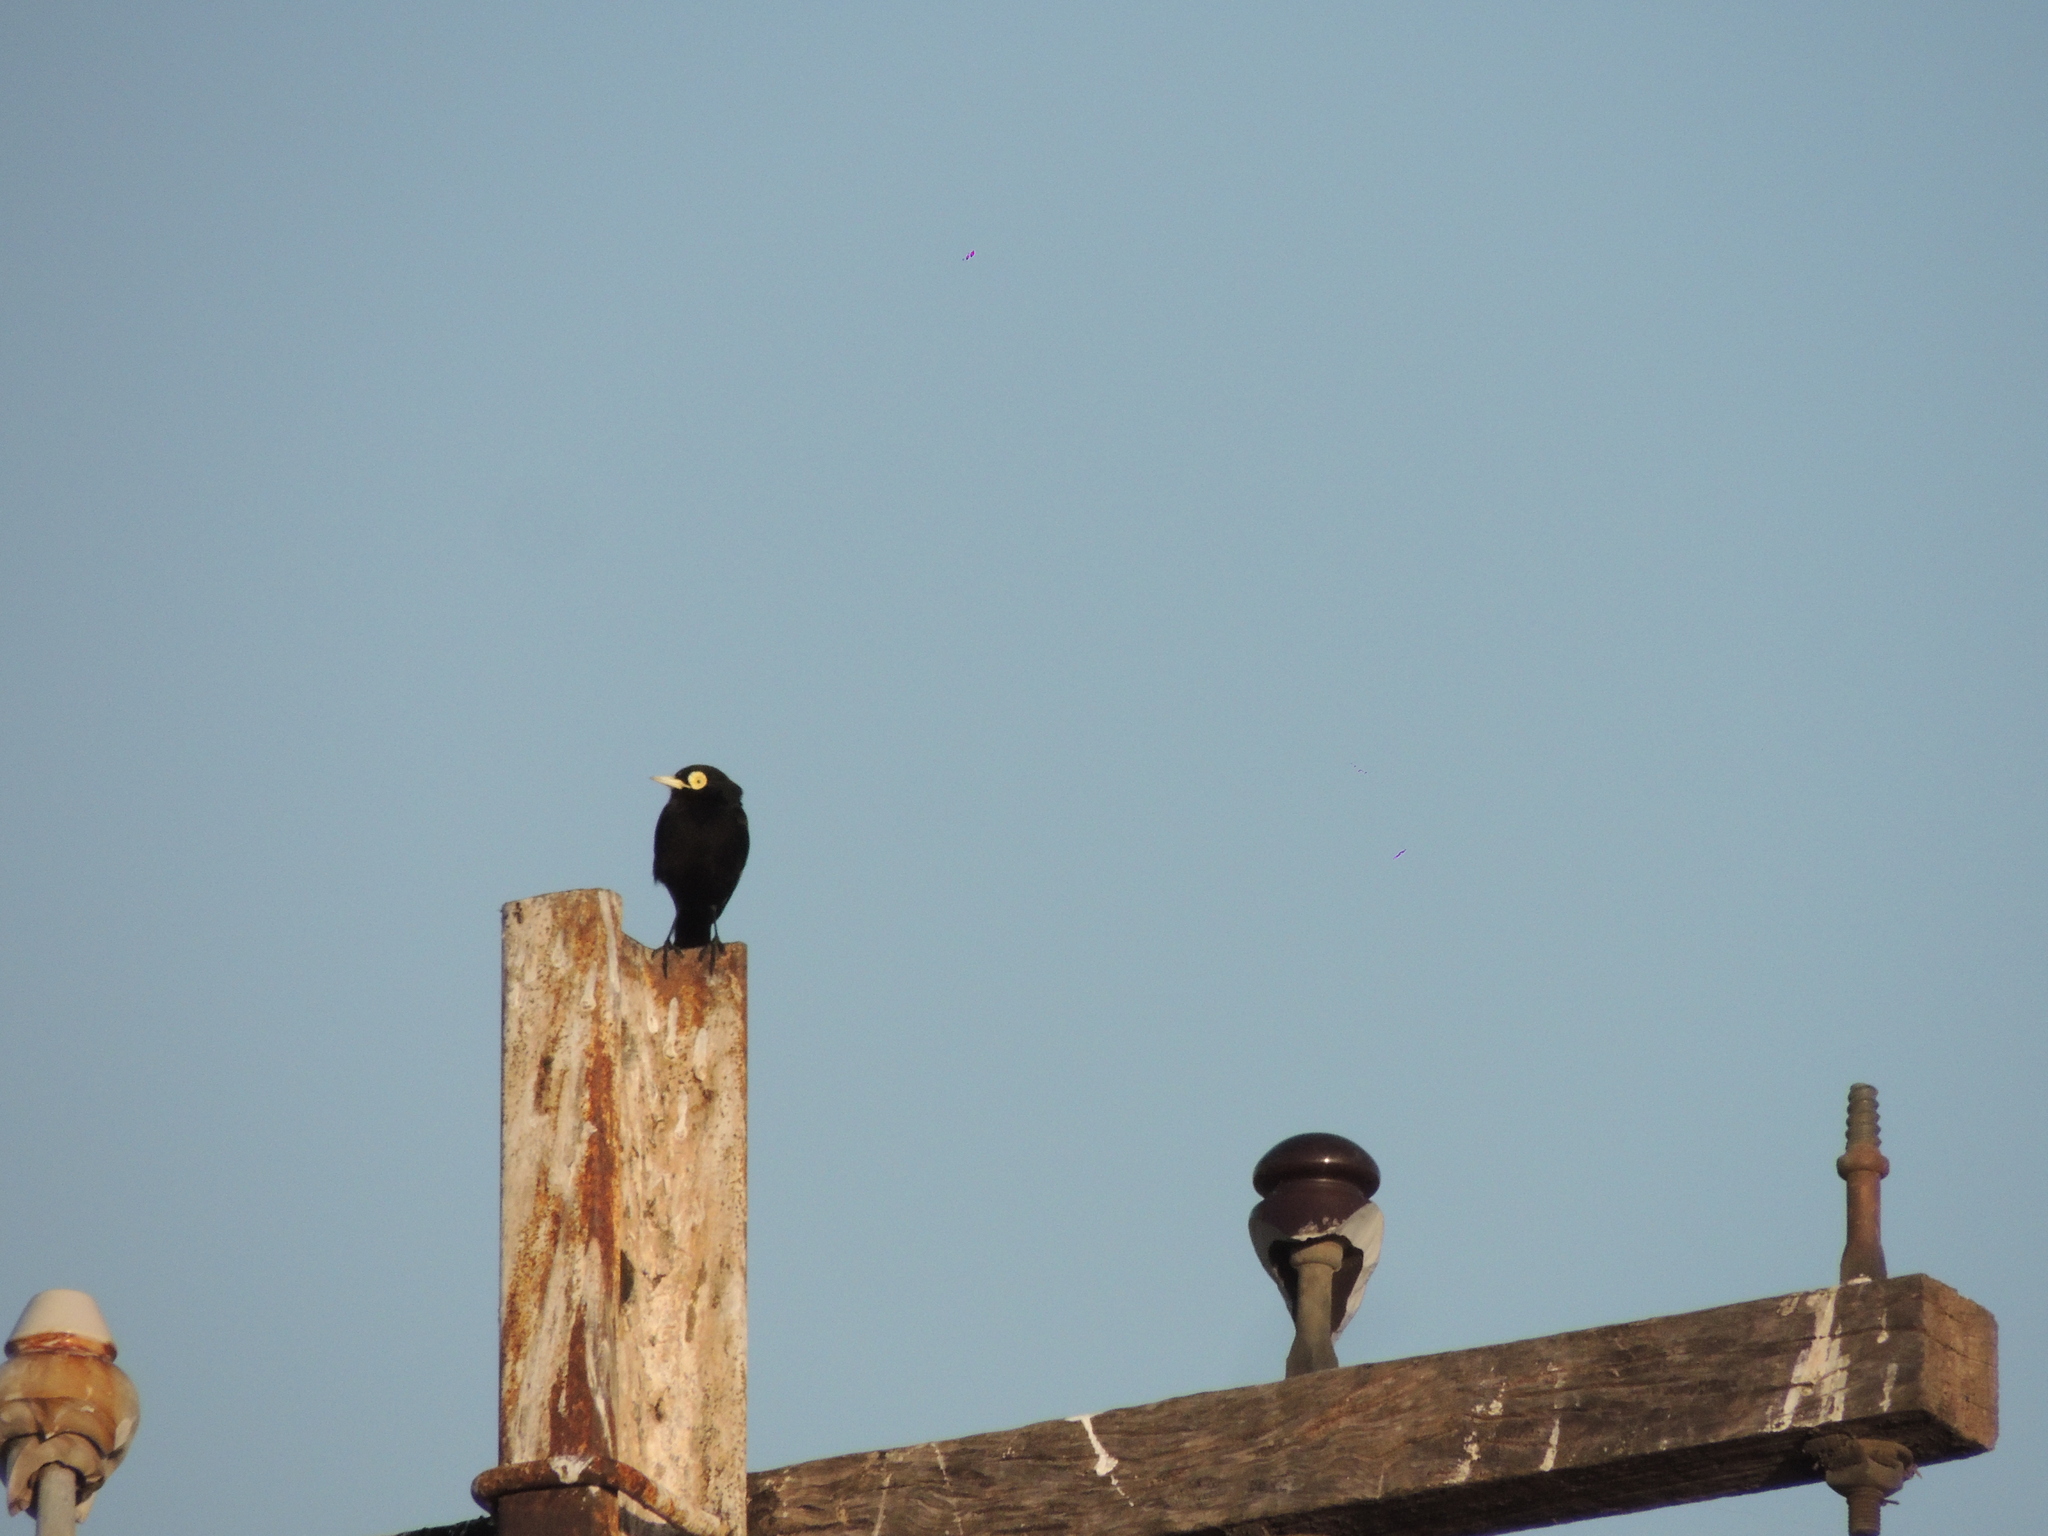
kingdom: Animalia
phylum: Chordata
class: Aves
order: Passeriformes
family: Tyrannidae
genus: Hymenops
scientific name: Hymenops perspicillatus
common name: Spectacled tyrant
